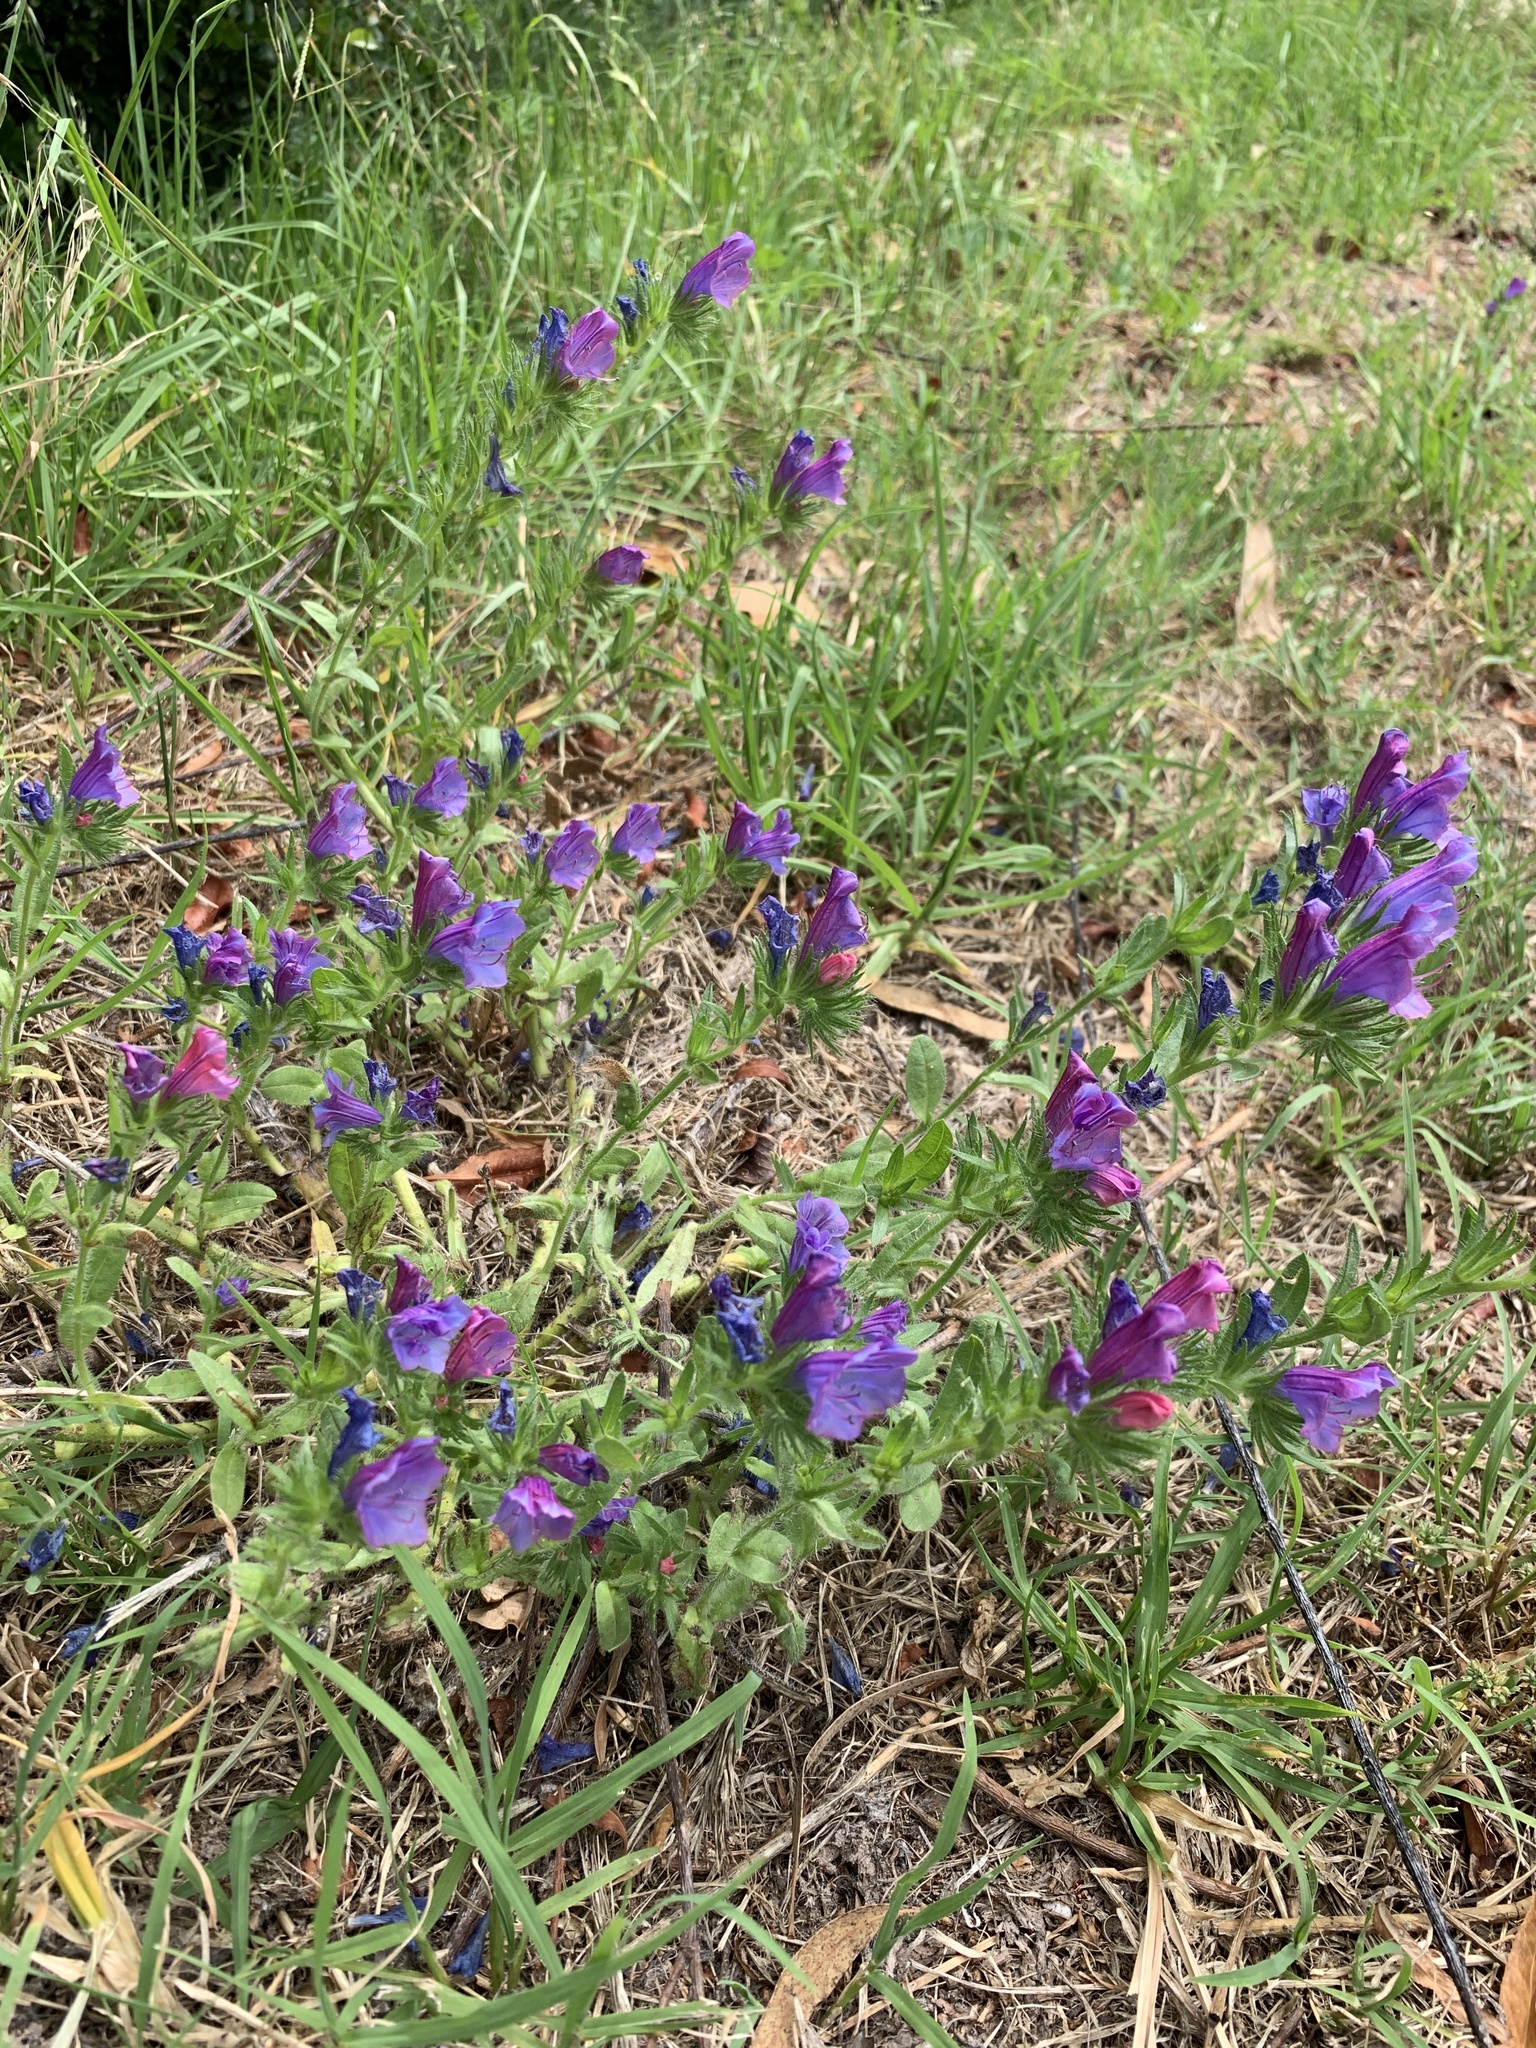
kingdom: Plantae
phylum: Tracheophyta
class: Magnoliopsida
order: Boraginales
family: Boraginaceae
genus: Echium
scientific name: Echium plantagineum
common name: Purple viper's-bugloss
